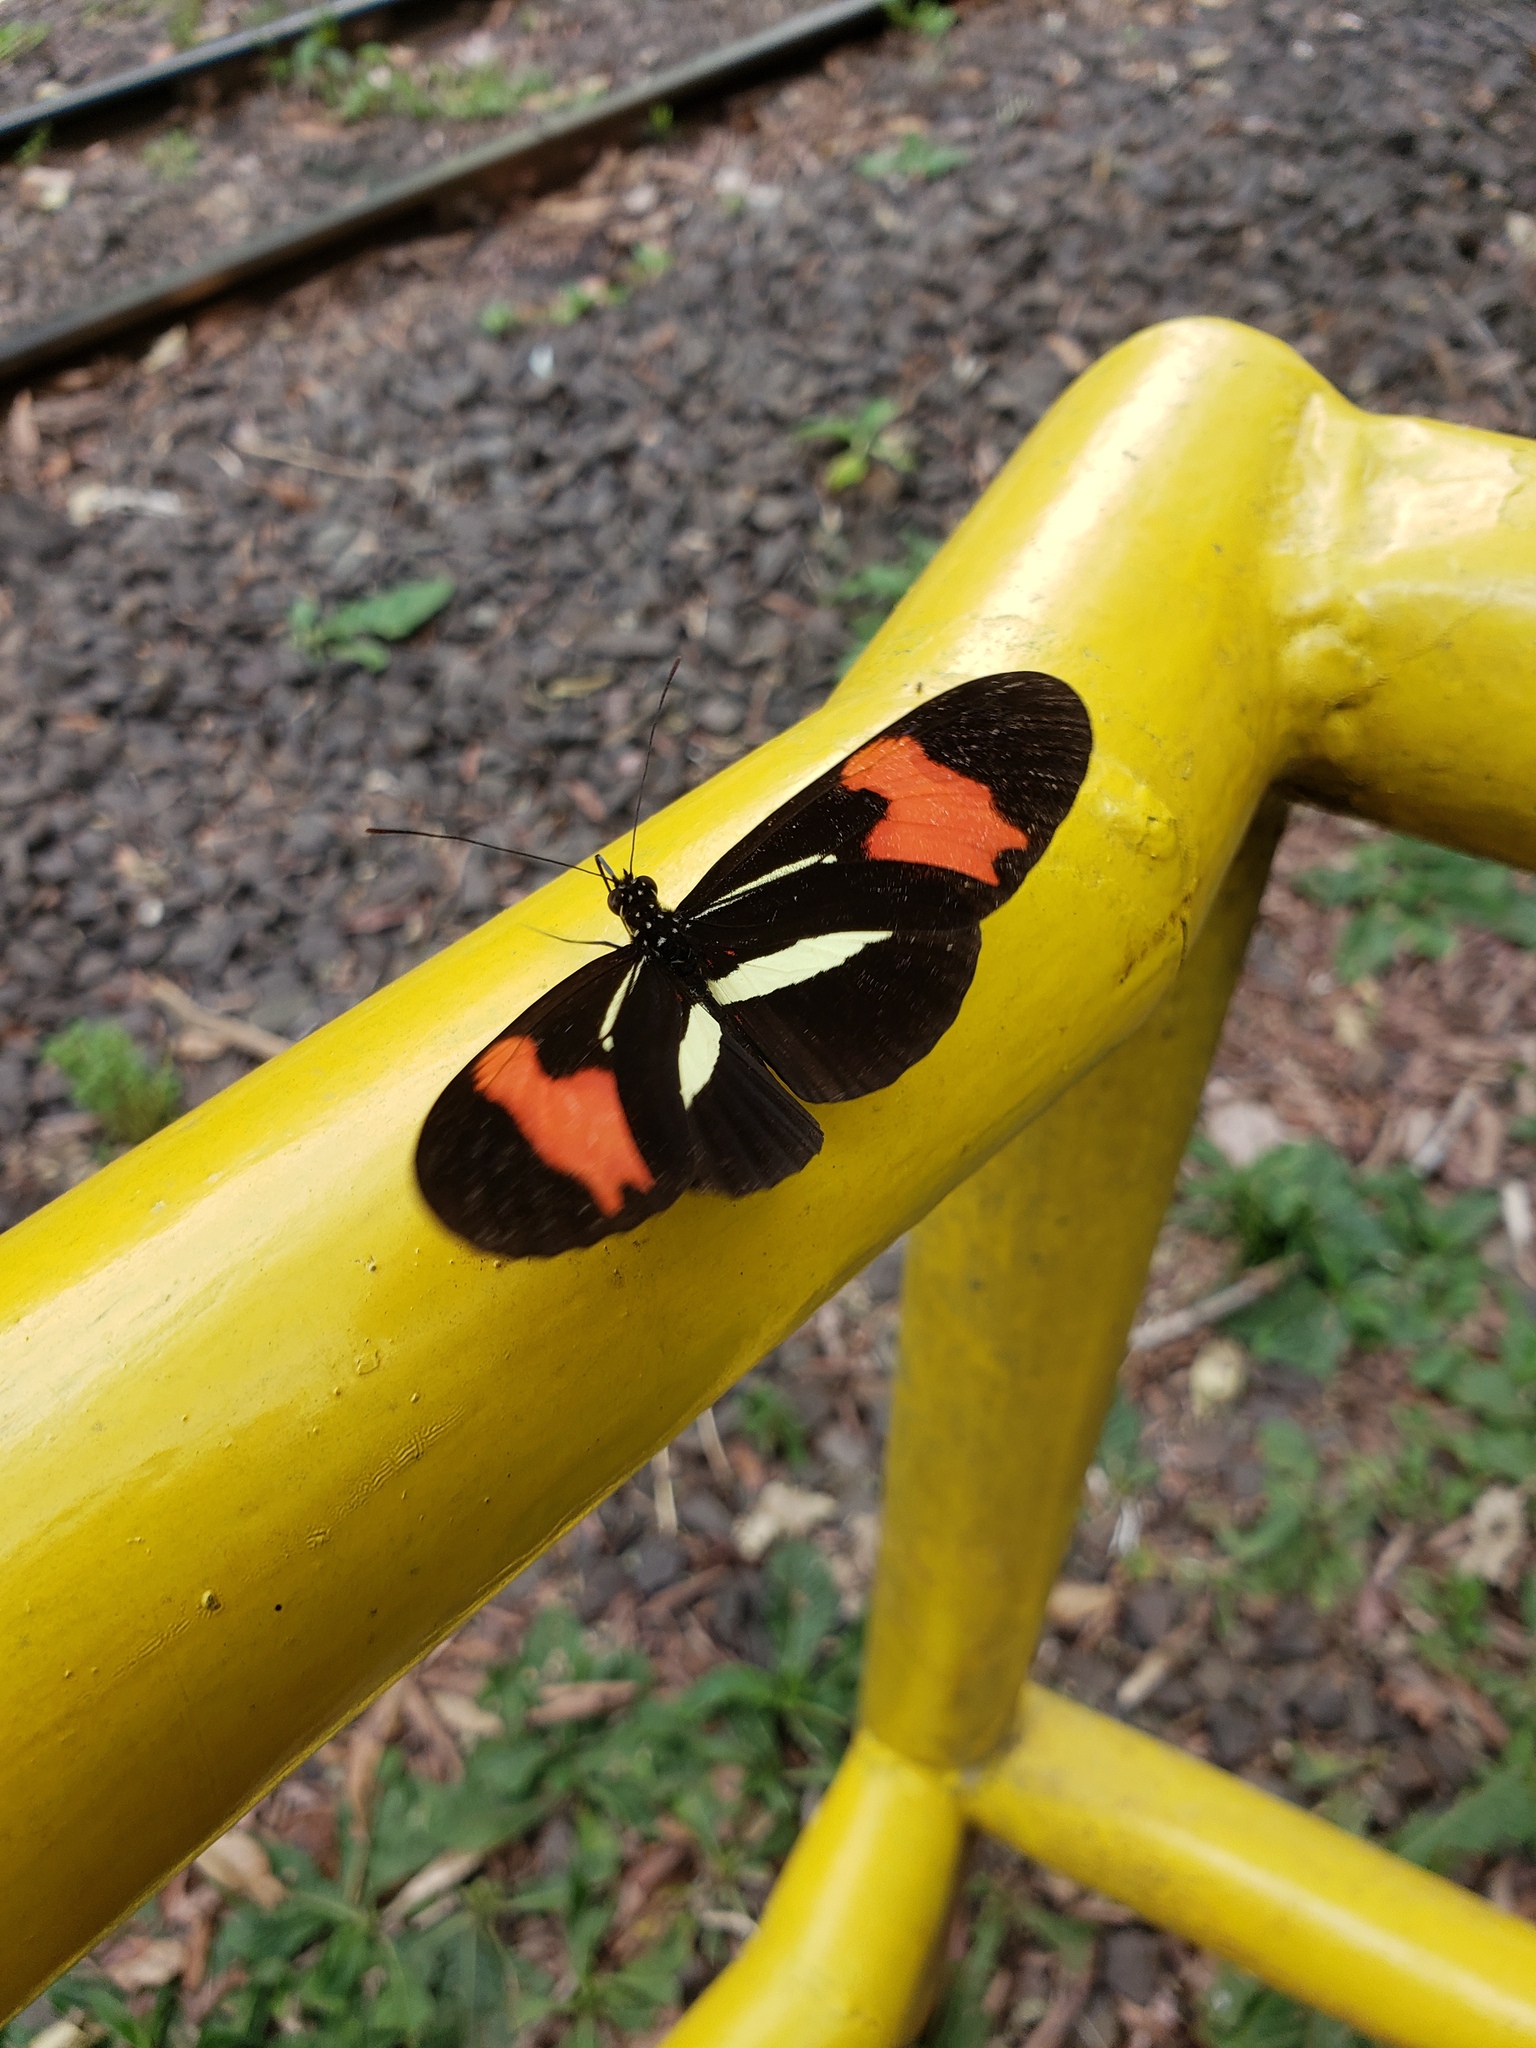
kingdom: Animalia
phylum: Arthropoda
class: Insecta
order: Lepidoptera
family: Nymphalidae
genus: Heliconius
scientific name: Heliconius erato
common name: Common patch longwing
